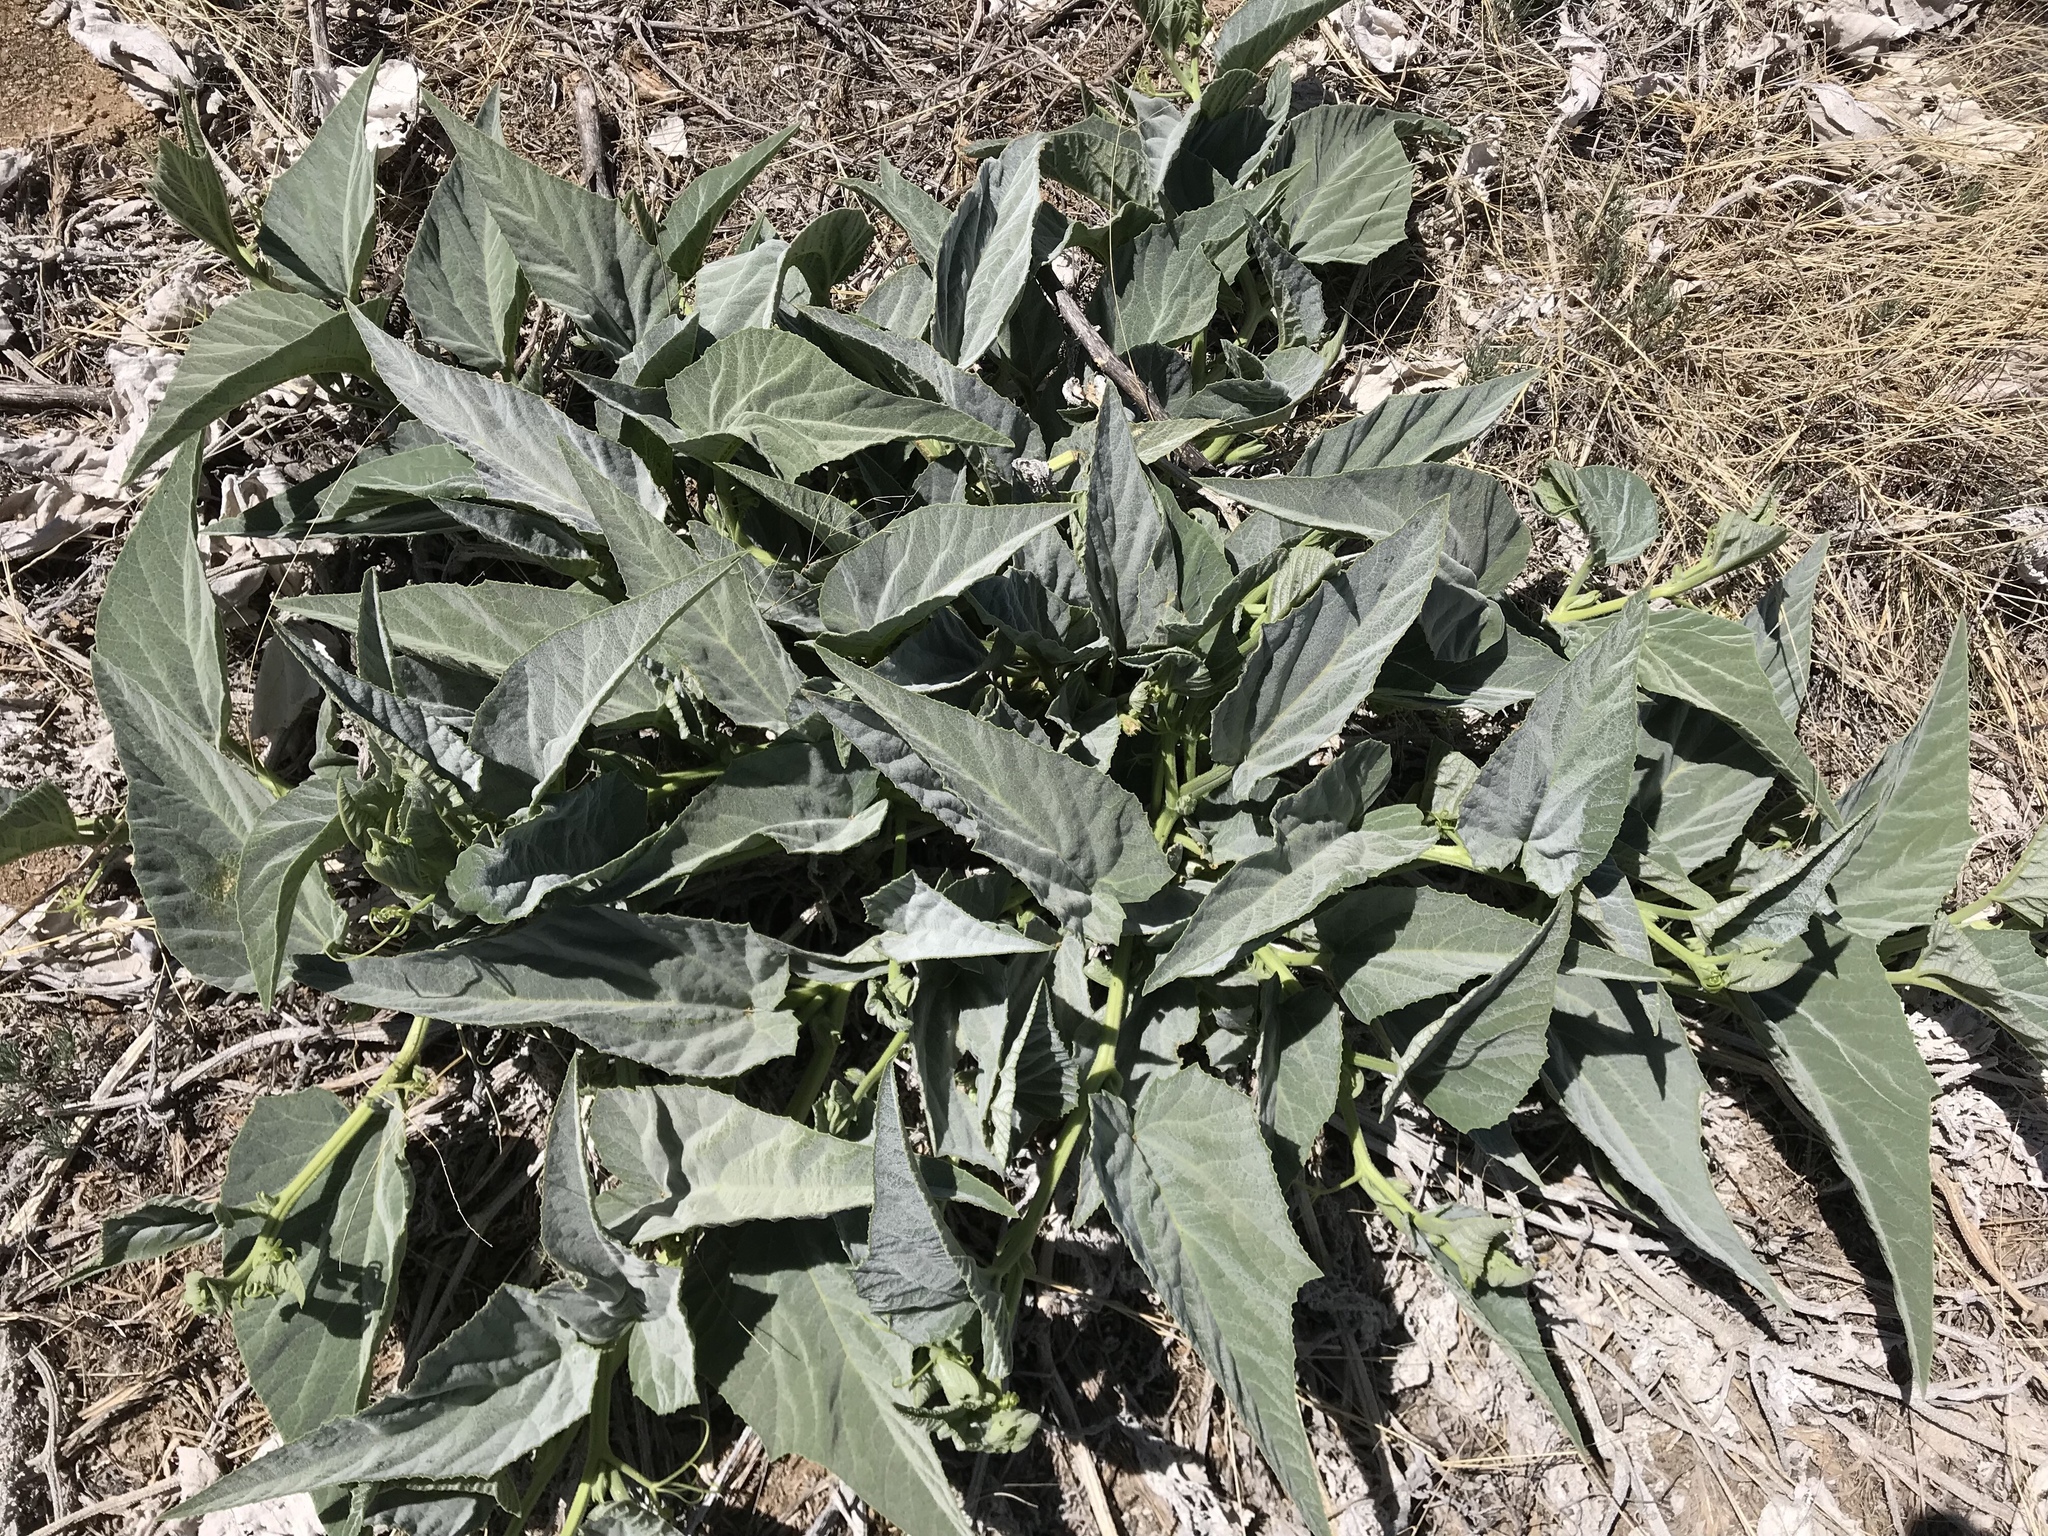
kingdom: Plantae
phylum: Tracheophyta
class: Magnoliopsida
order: Cucurbitales
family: Cucurbitaceae
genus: Cucurbita
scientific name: Cucurbita foetidissima
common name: Buffalo gourd
